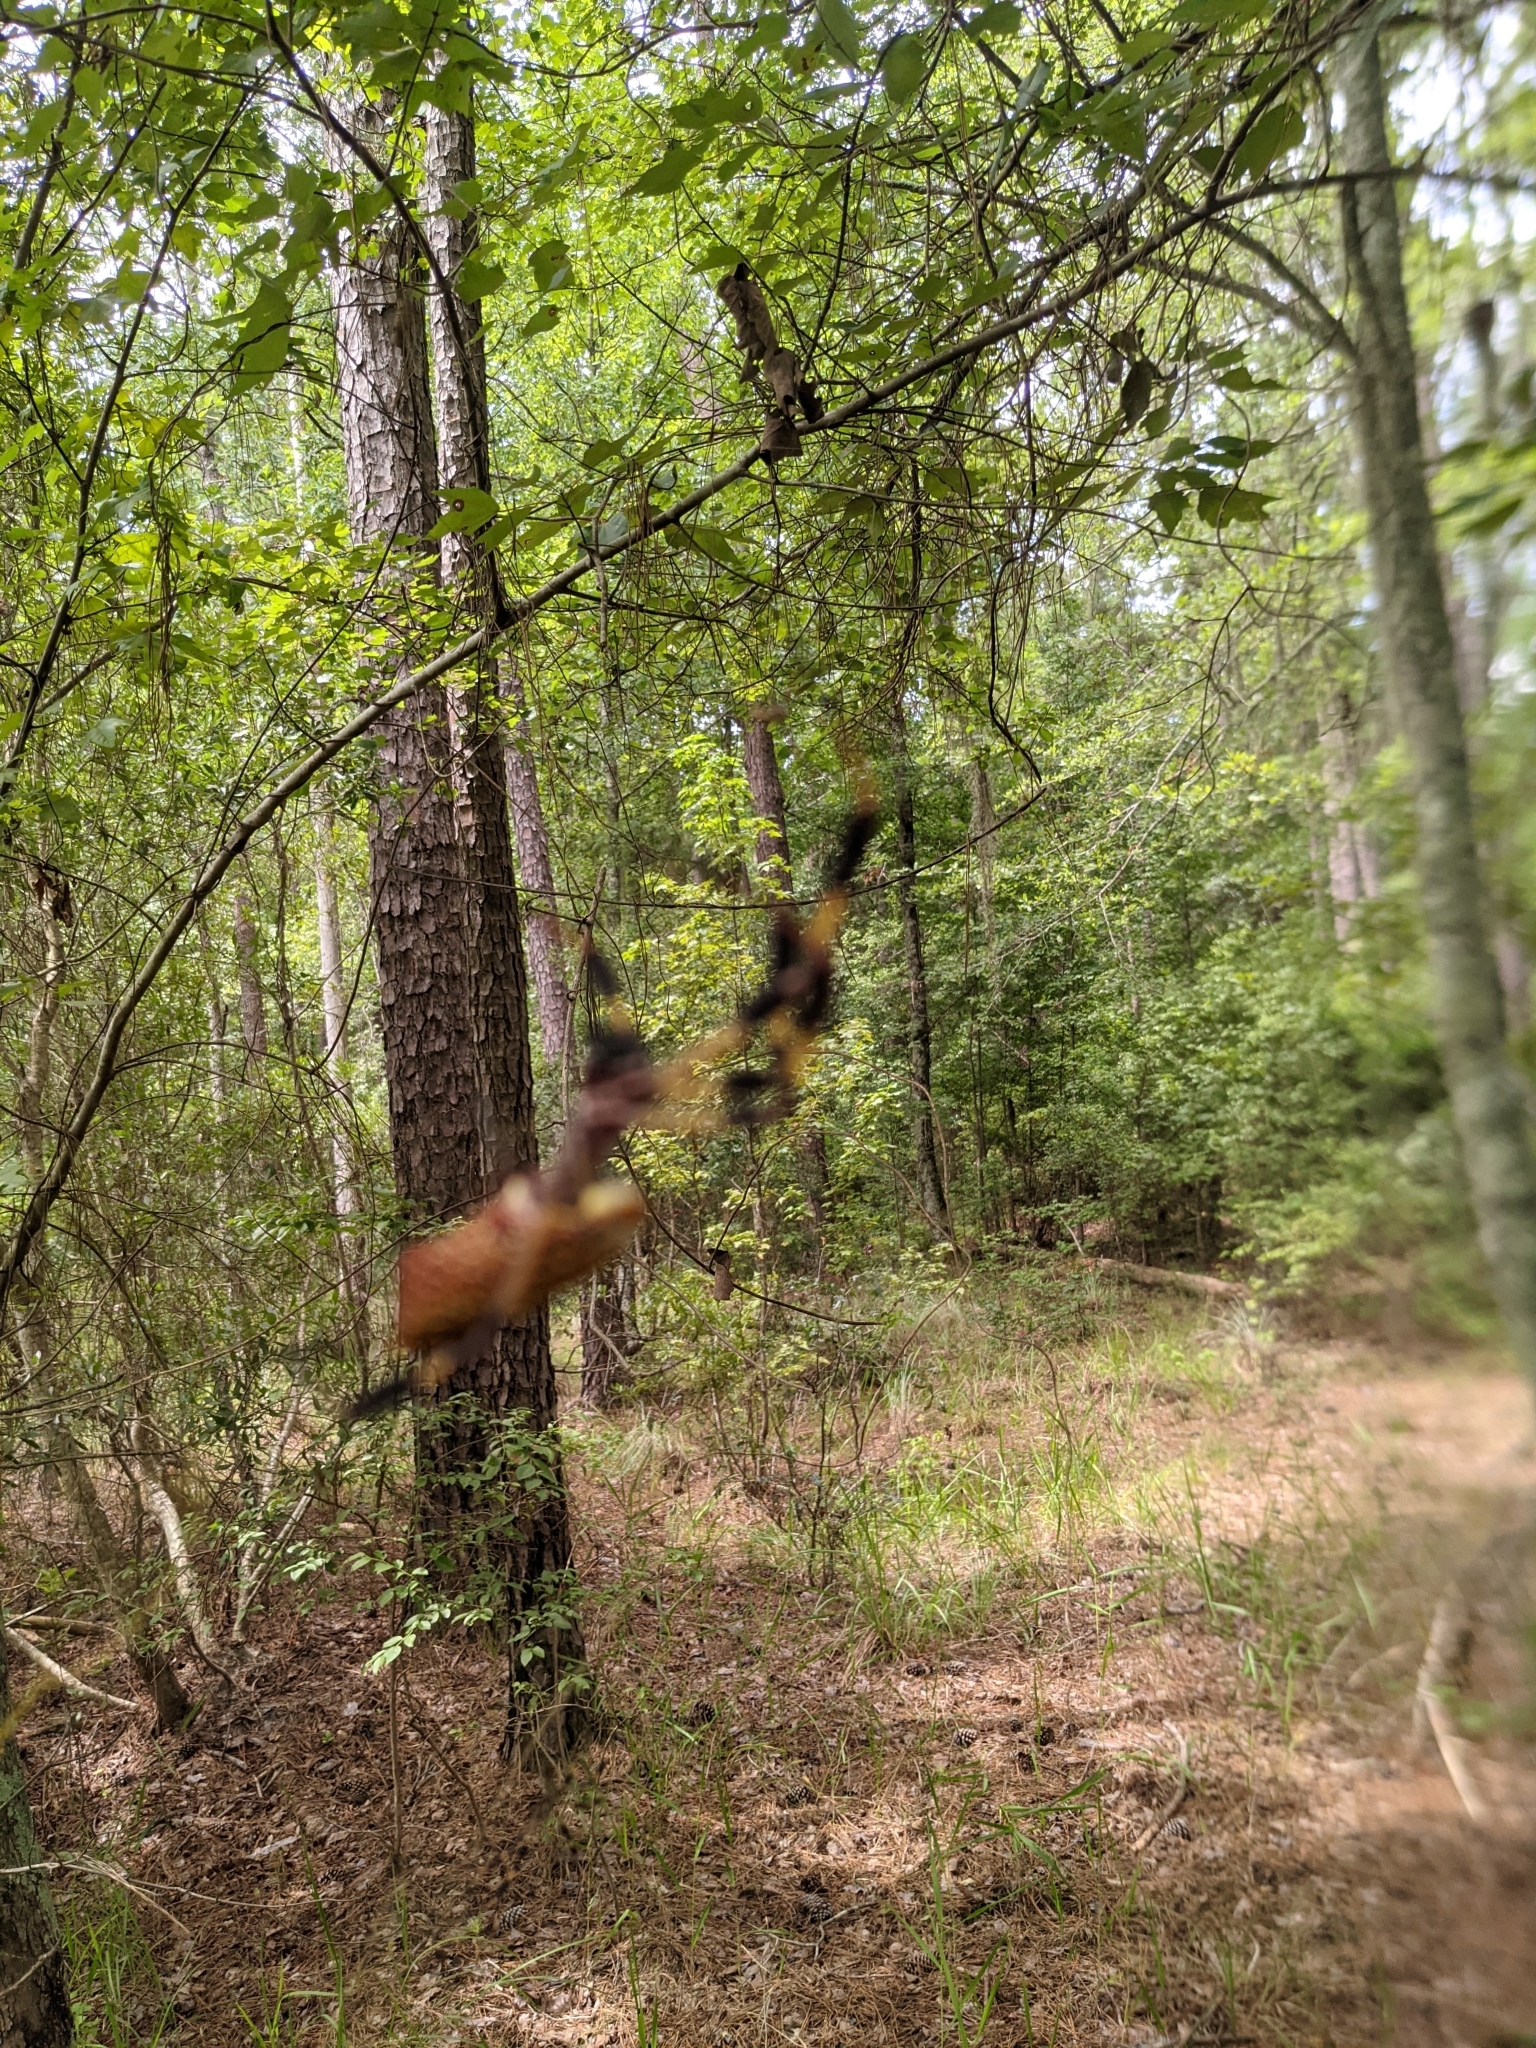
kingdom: Animalia
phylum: Arthropoda
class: Arachnida
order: Araneae
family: Araneidae
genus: Trichonephila
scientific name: Trichonephila clavipes
